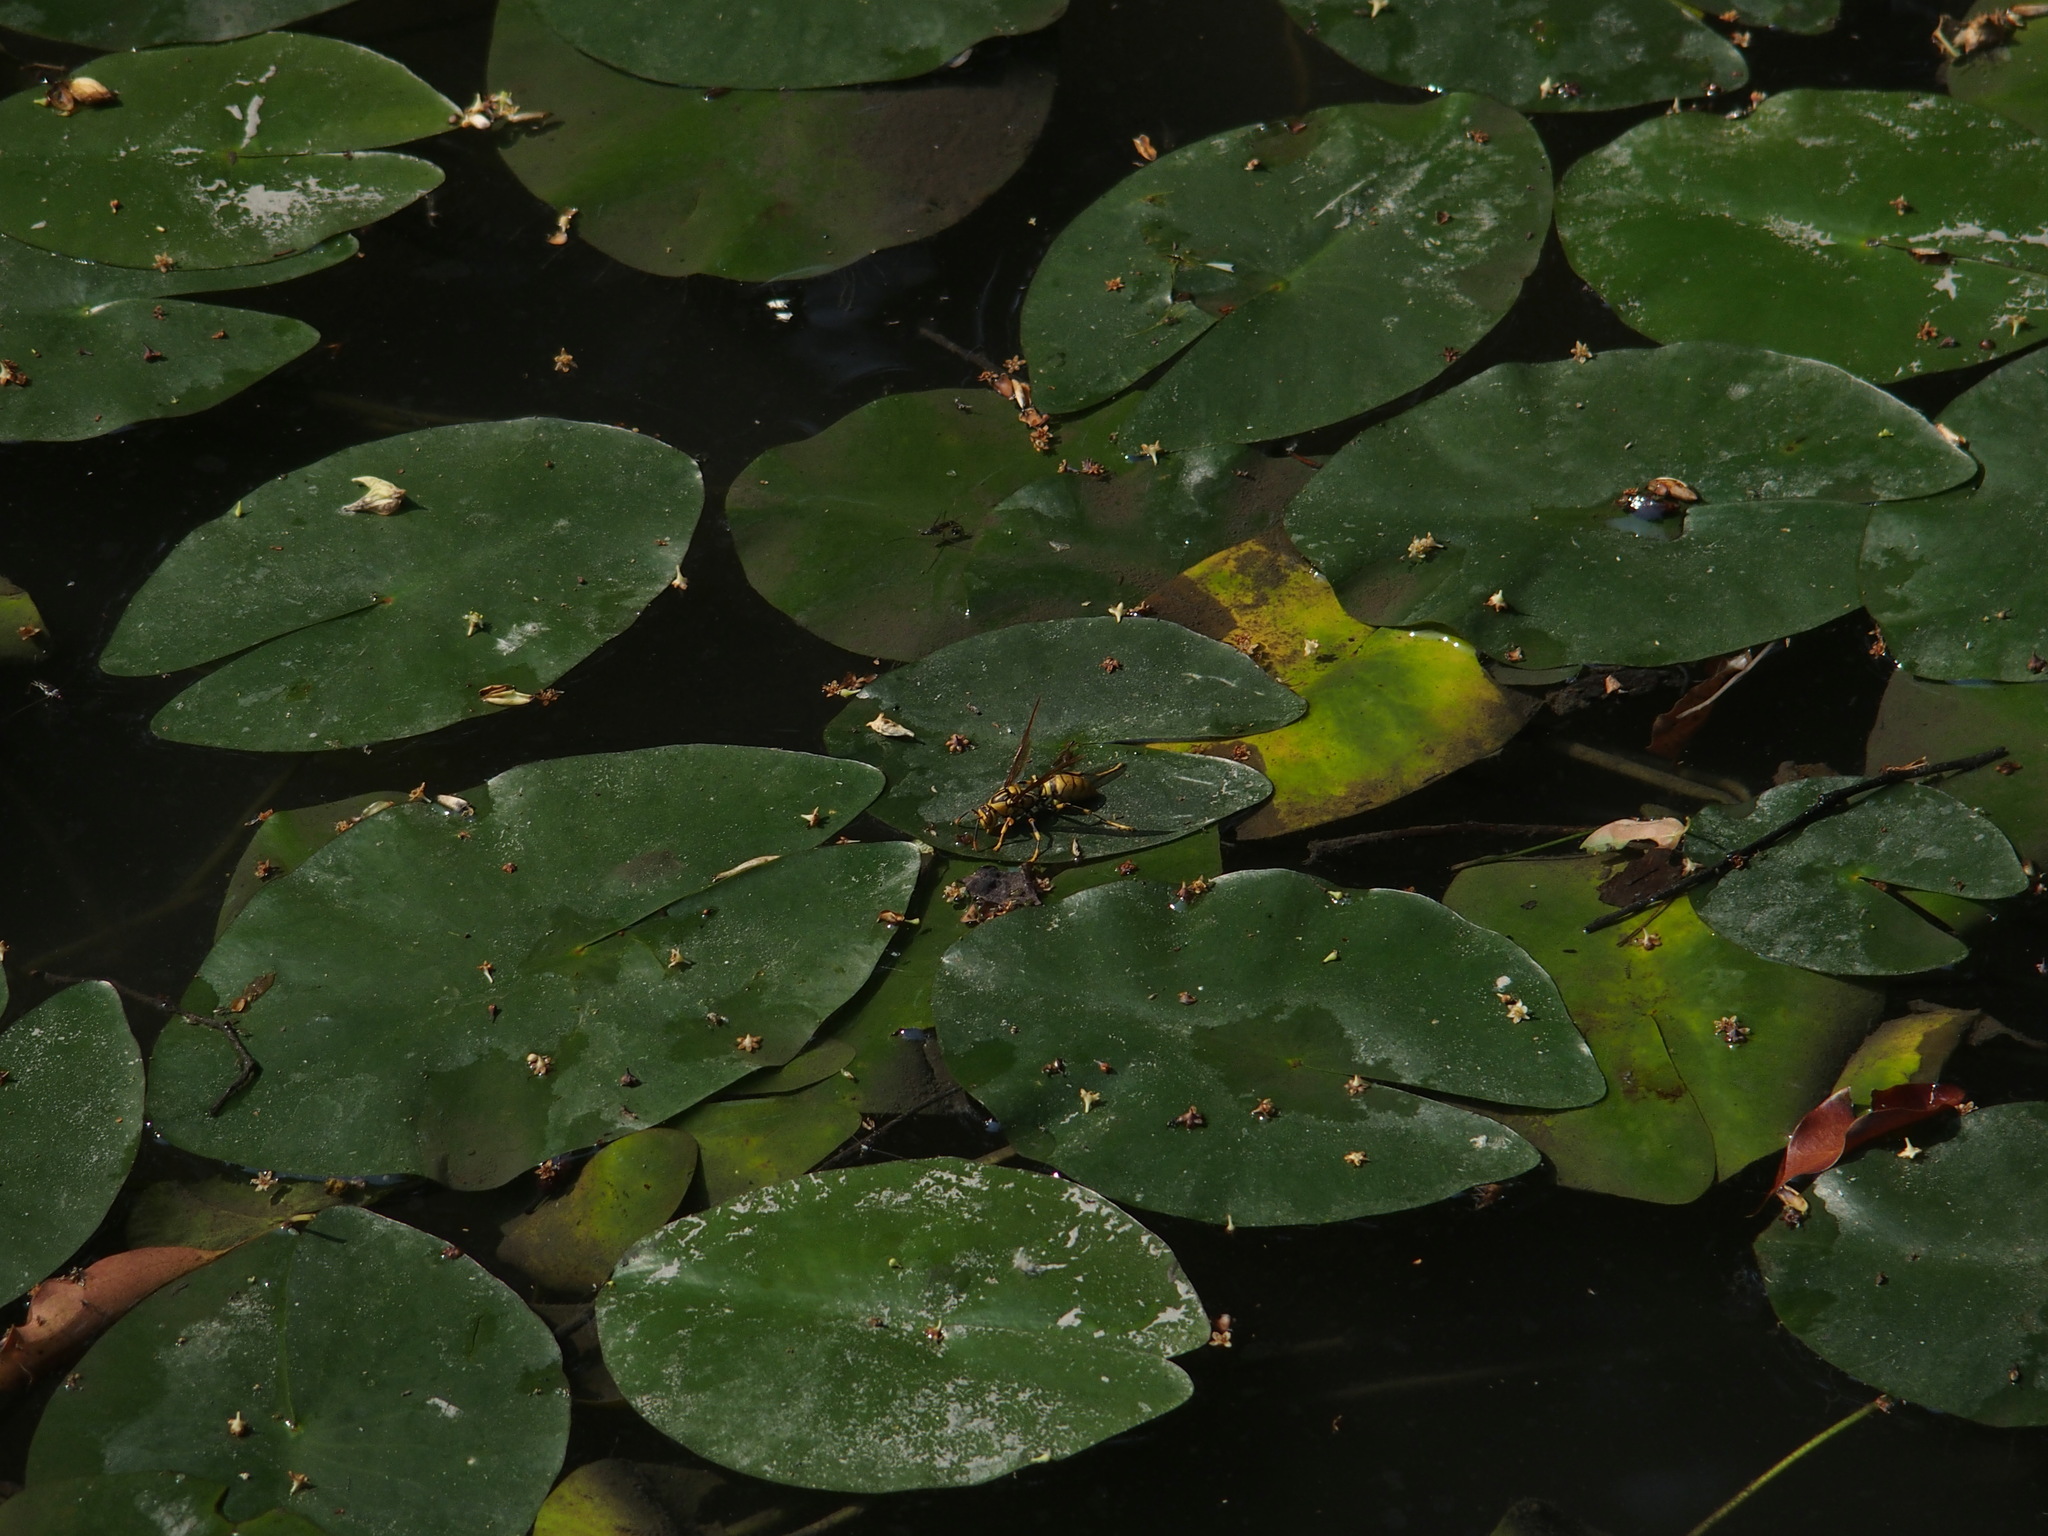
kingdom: Animalia
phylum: Arthropoda
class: Insecta
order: Hymenoptera
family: Eumenidae
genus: Polistes
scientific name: Polistes rothneyi
